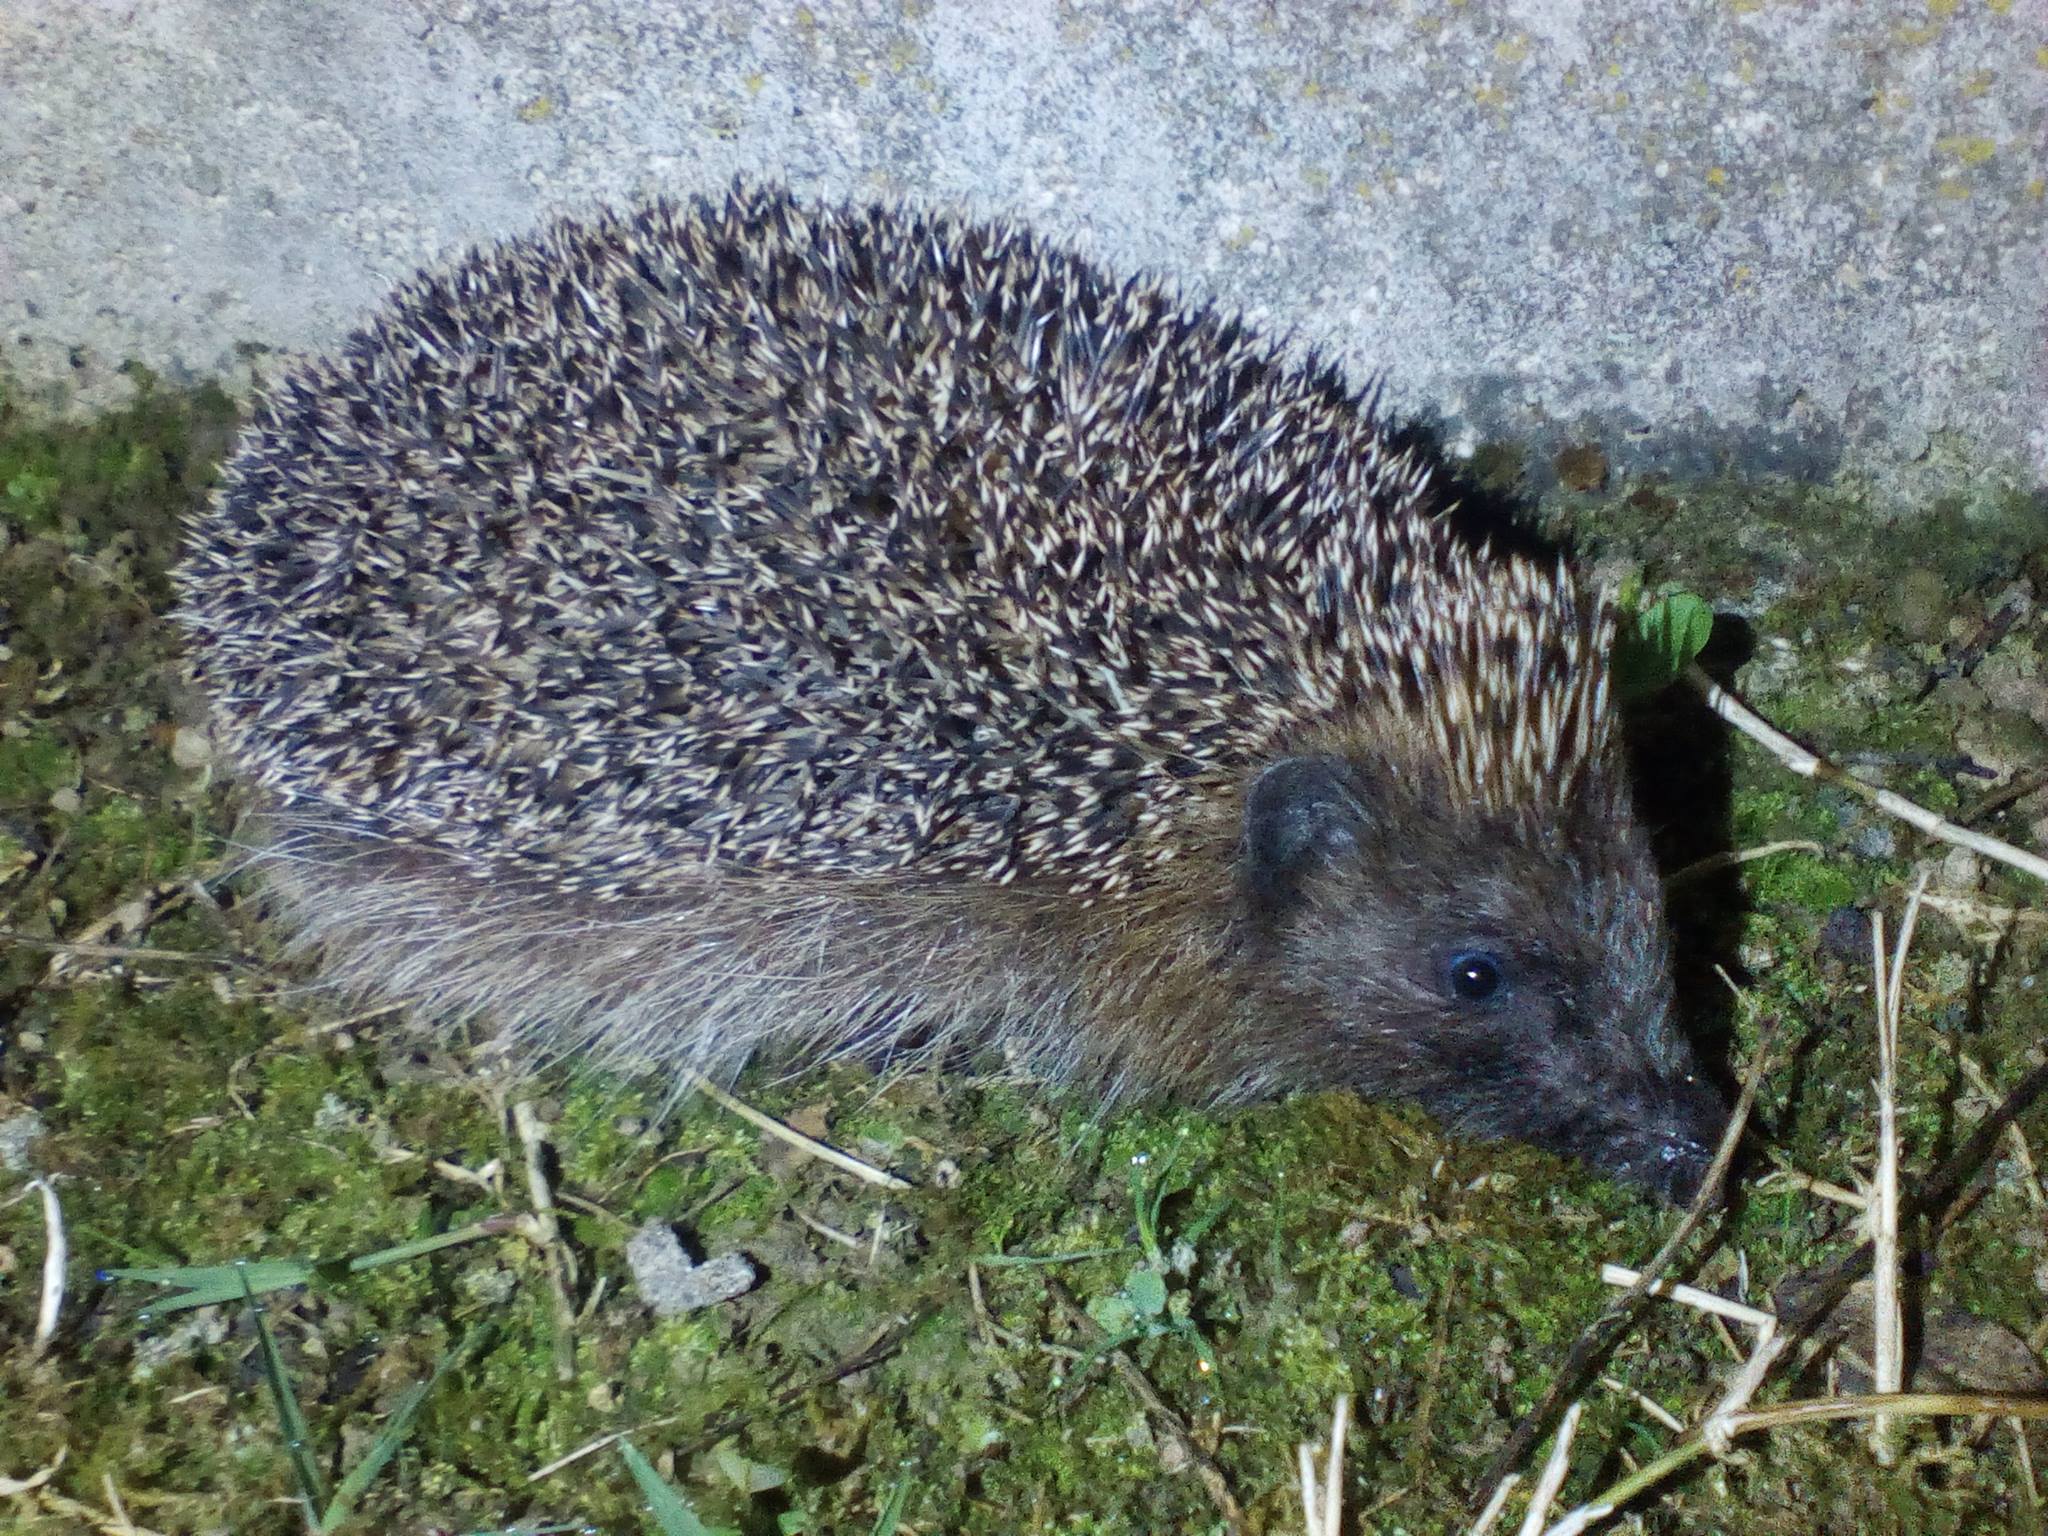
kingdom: Animalia
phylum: Chordata
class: Mammalia
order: Erinaceomorpha
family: Erinaceidae
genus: Erinaceus
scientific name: Erinaceus europaeus
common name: West european hedgehog
